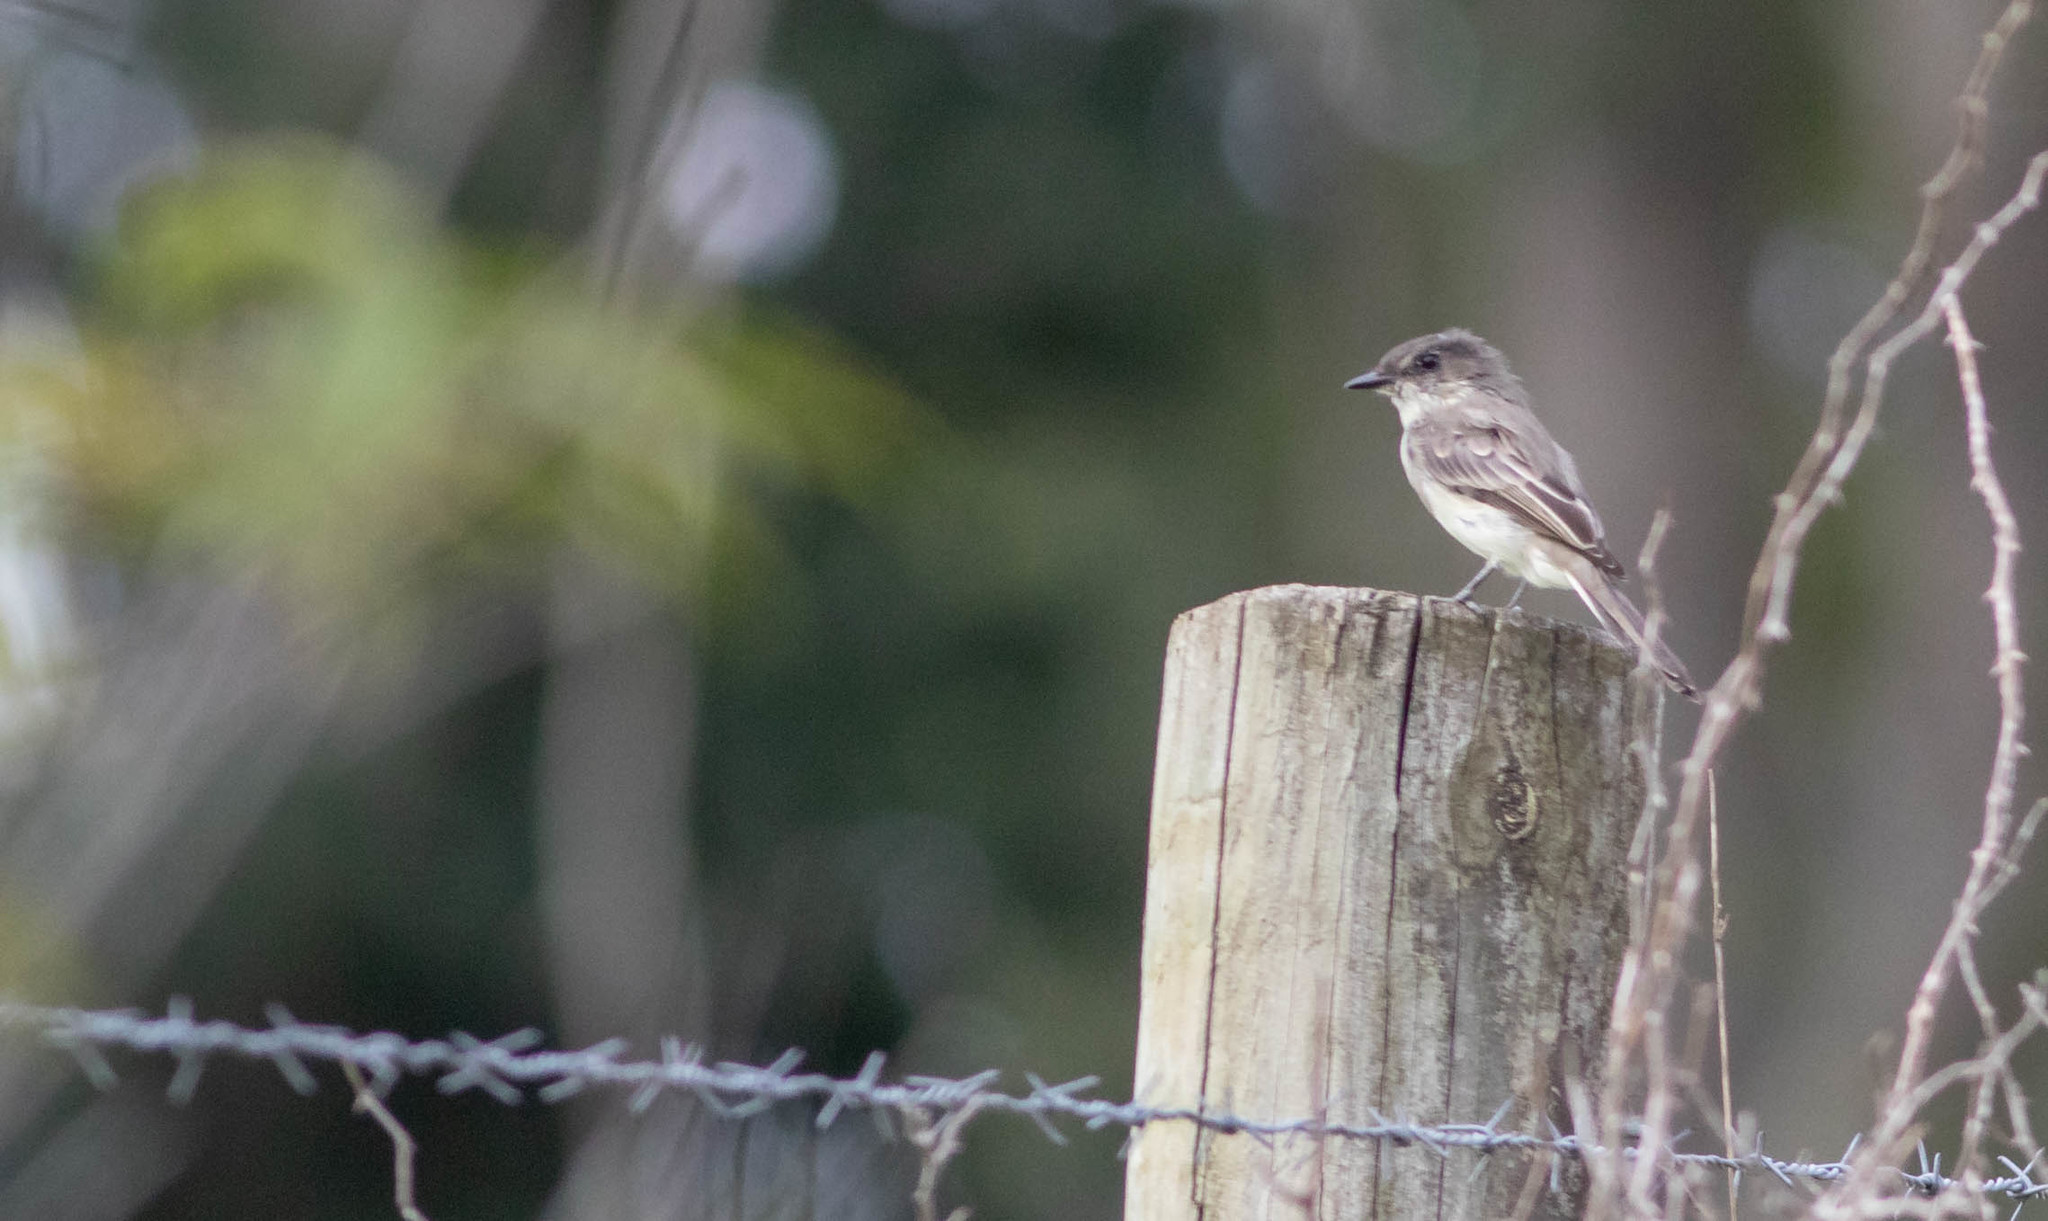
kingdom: Animalia
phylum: Chordata
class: Aves
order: Passeriformes
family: Tyrannidae
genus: Sayornis
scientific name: Sayornis phoebe
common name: Eastern phoebe
